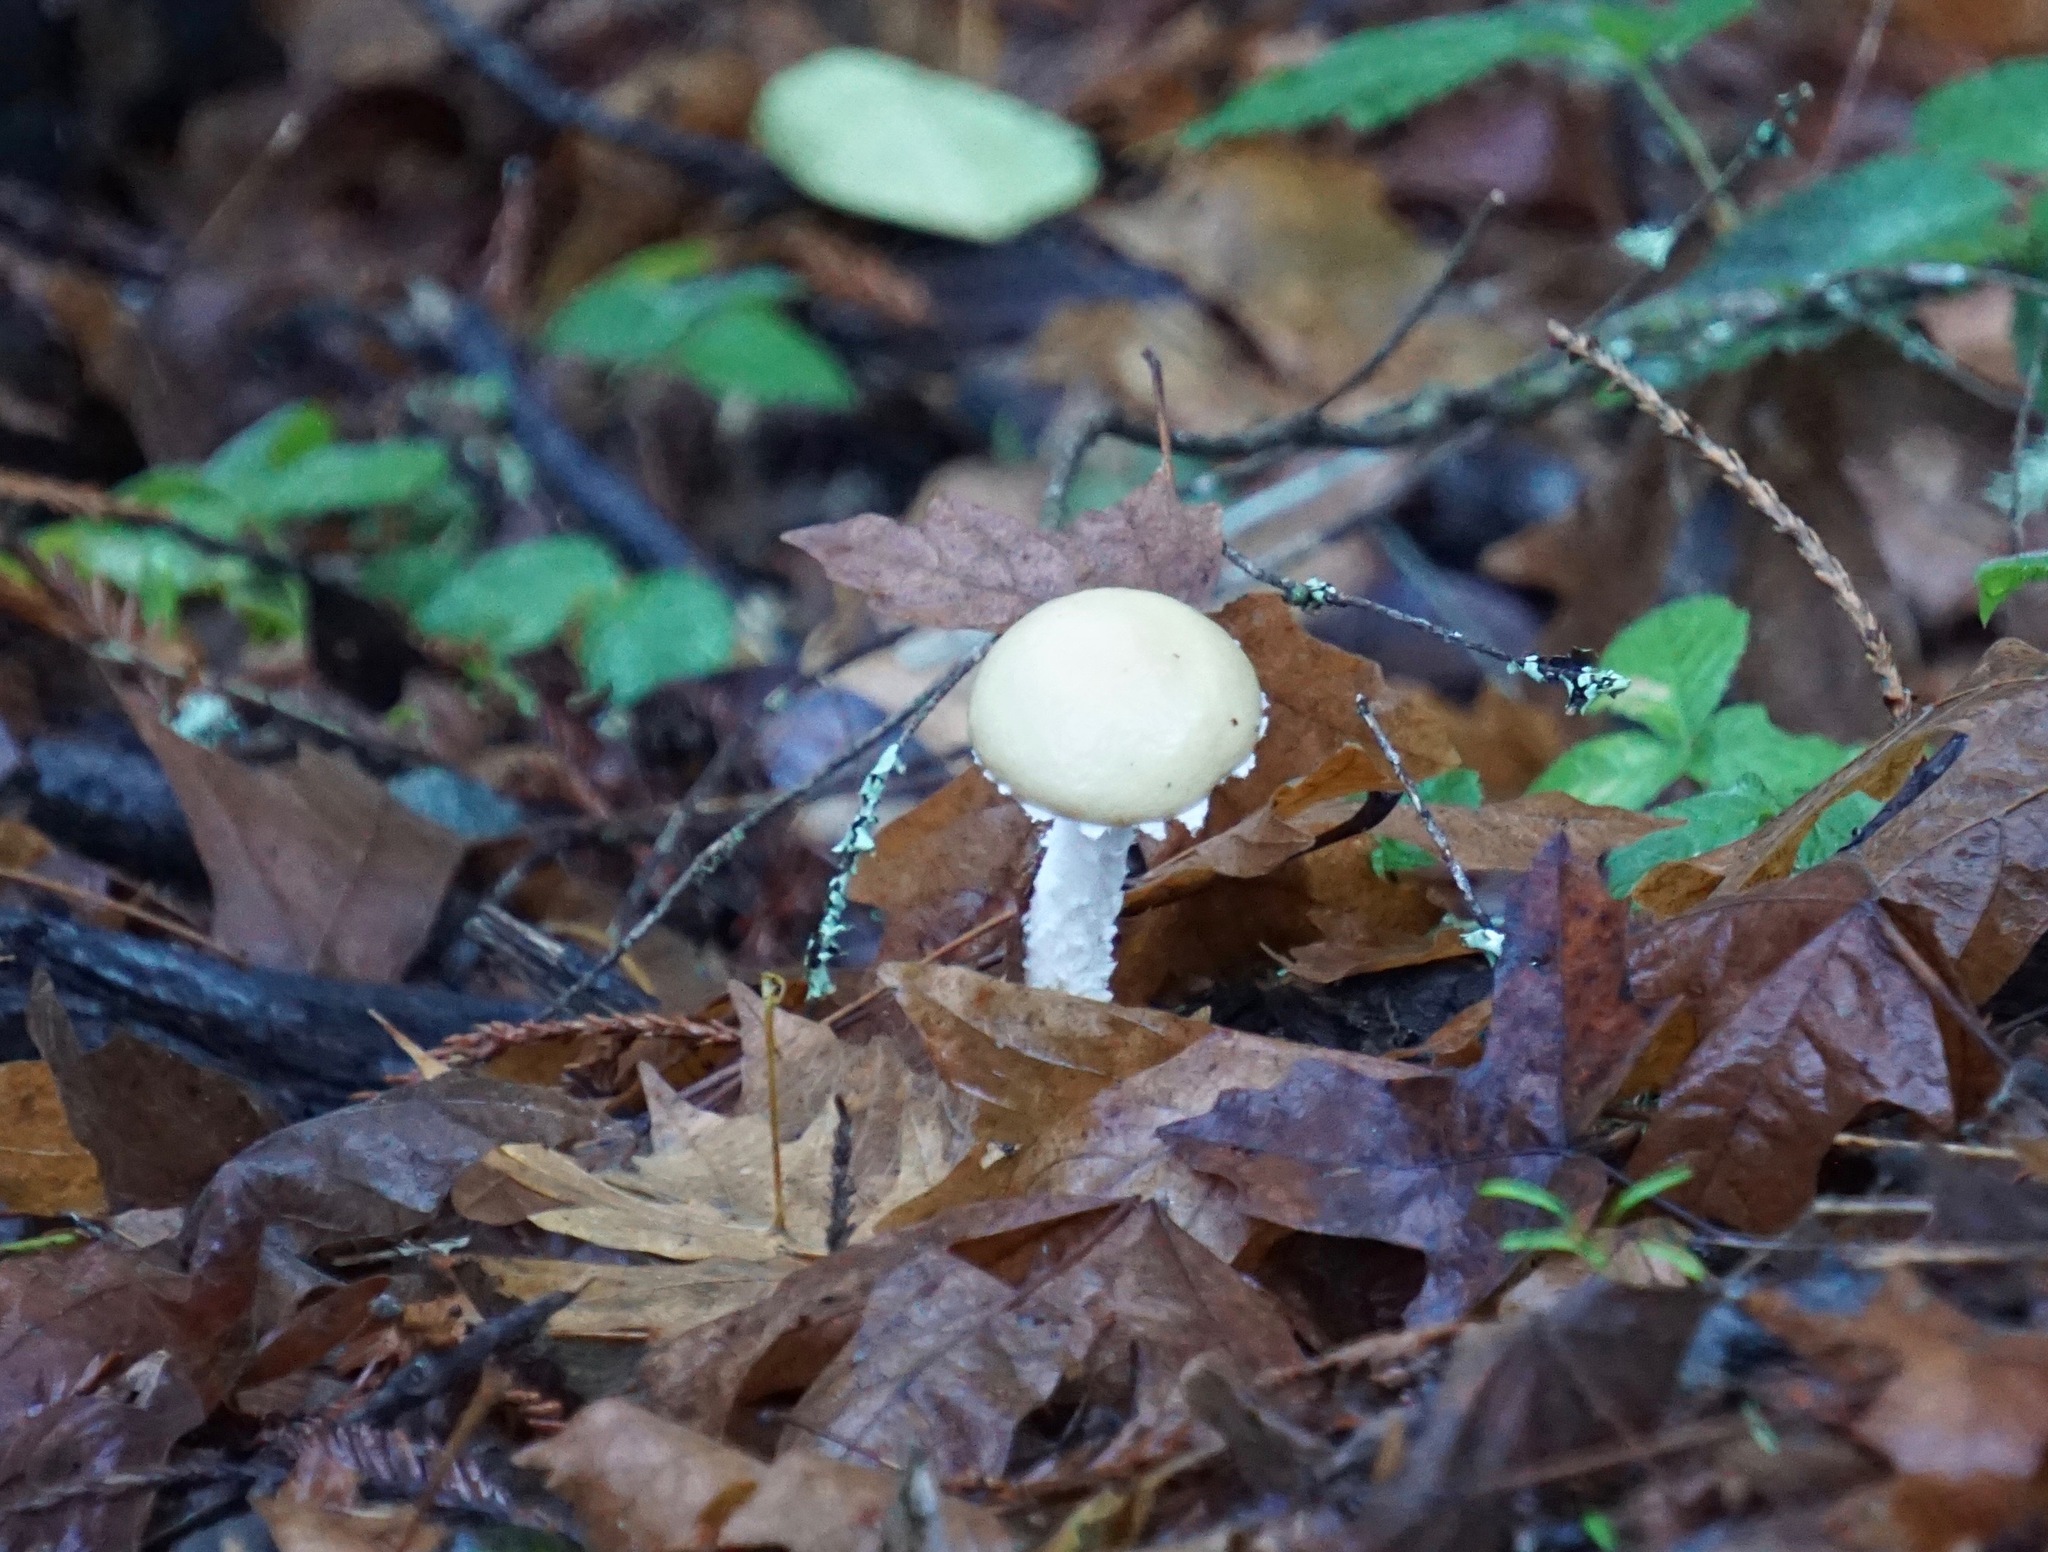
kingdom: Fungi
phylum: Basidiomycota
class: Agaricomycetes
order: Agaricales
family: Strophariaceae
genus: Stropharia
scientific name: Stropharia ambigua
